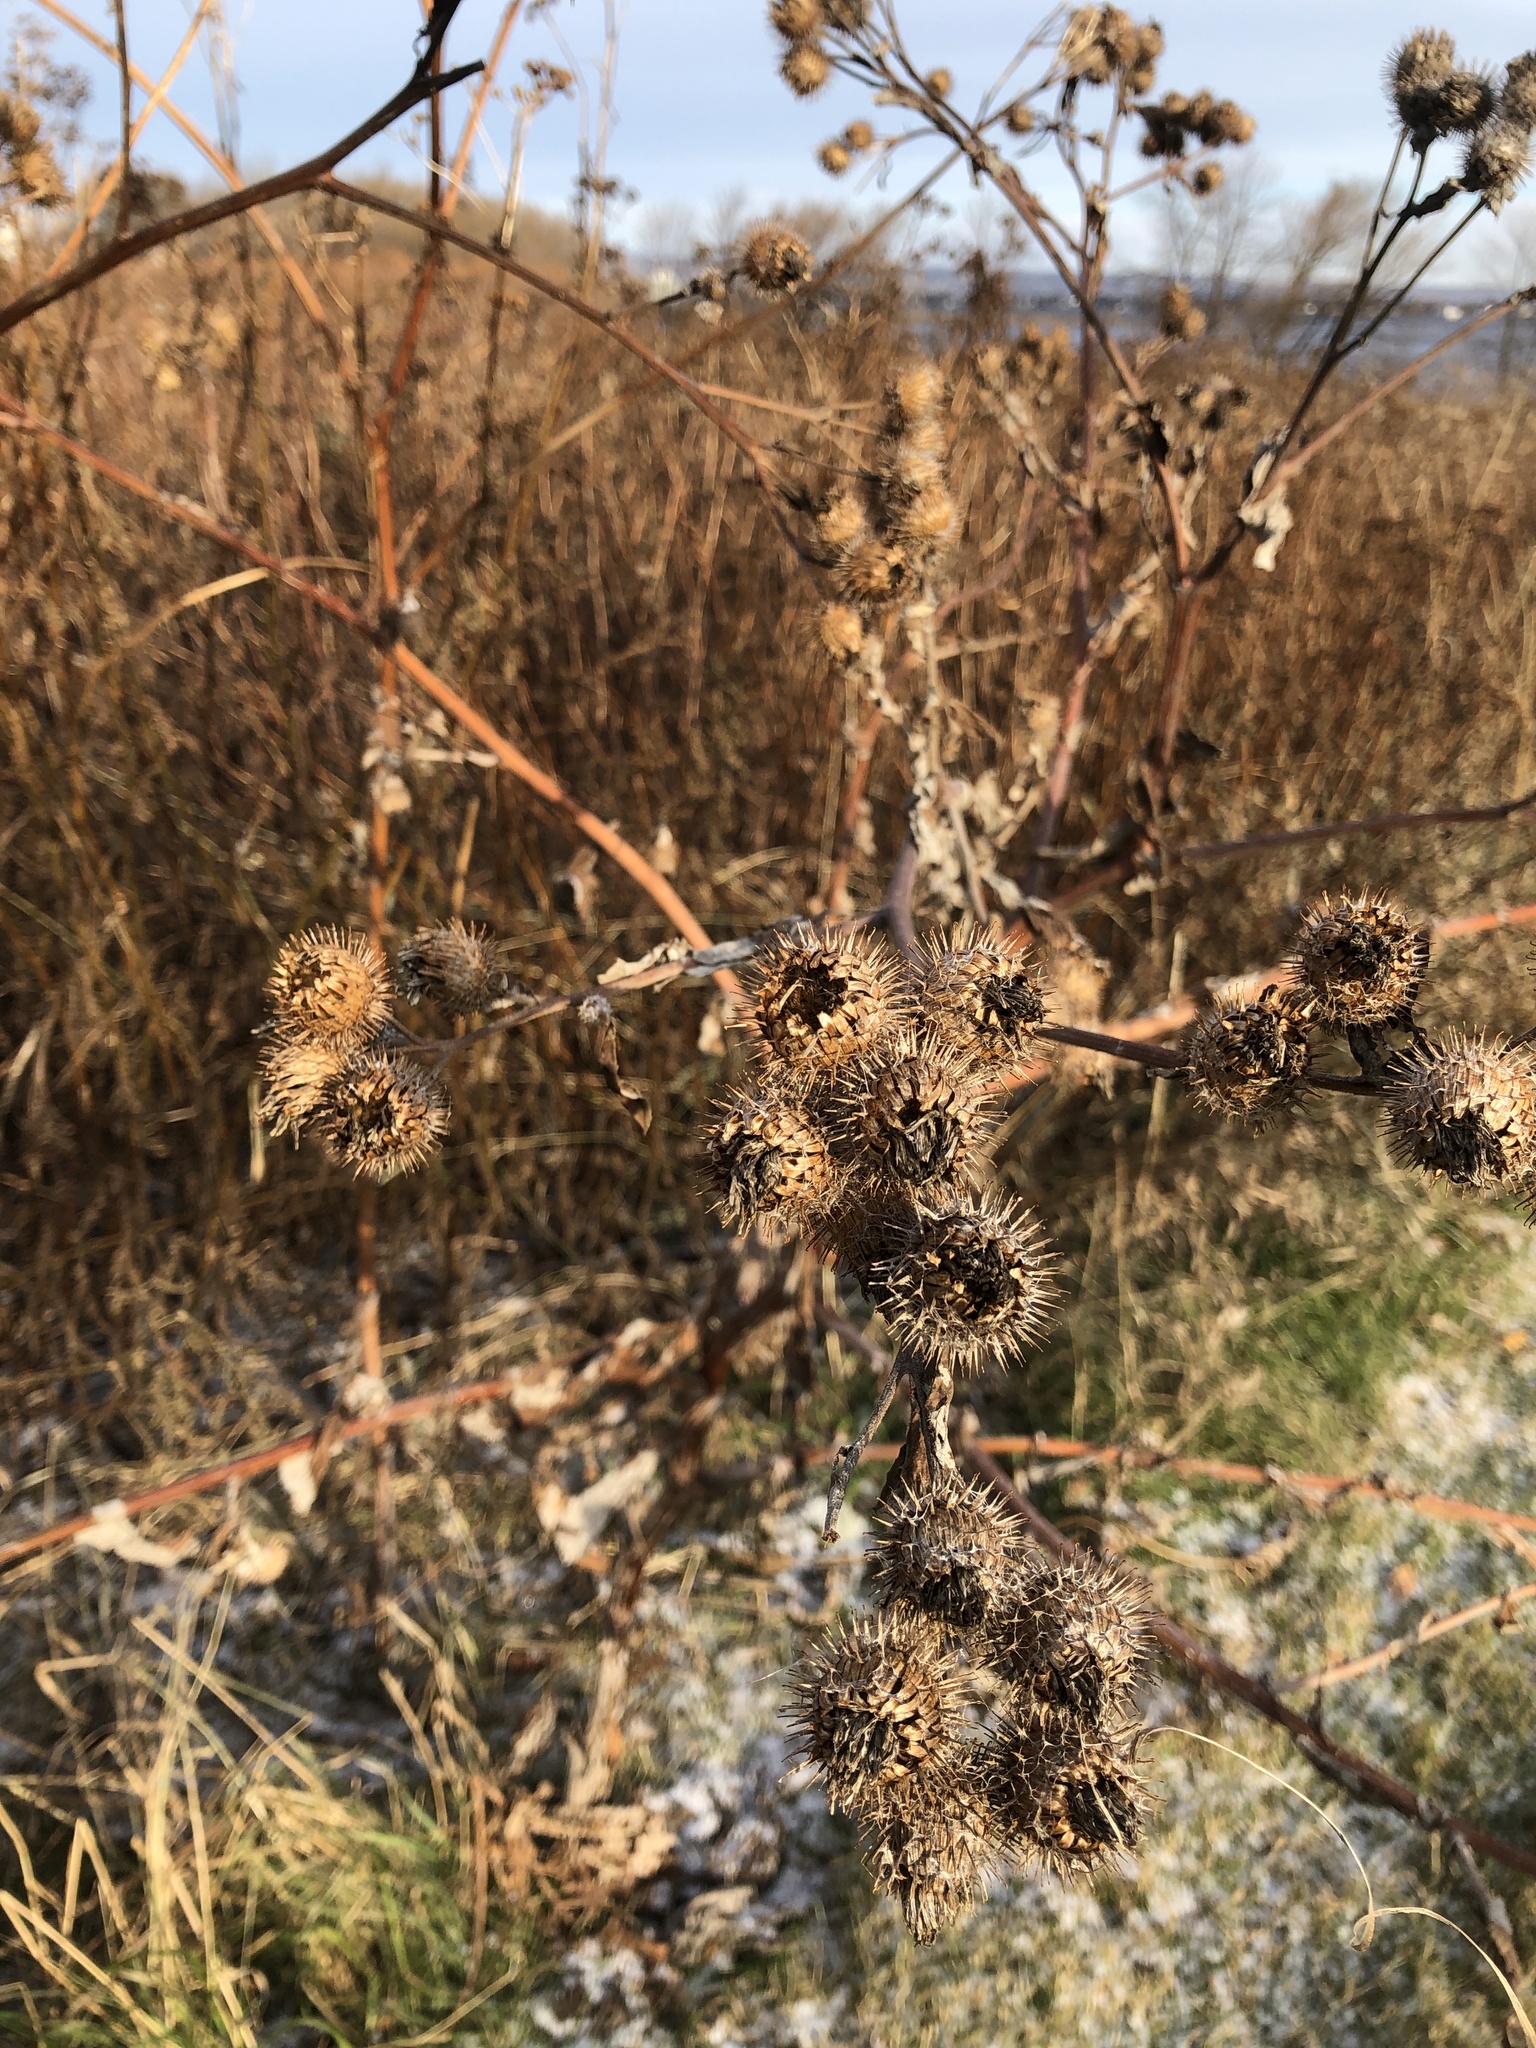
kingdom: Plantae
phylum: Tracheophyta
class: Magnoliopsida
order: Asterales
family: Asteraceae
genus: Arctium
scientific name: Arctium lappa
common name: Greater burdock
